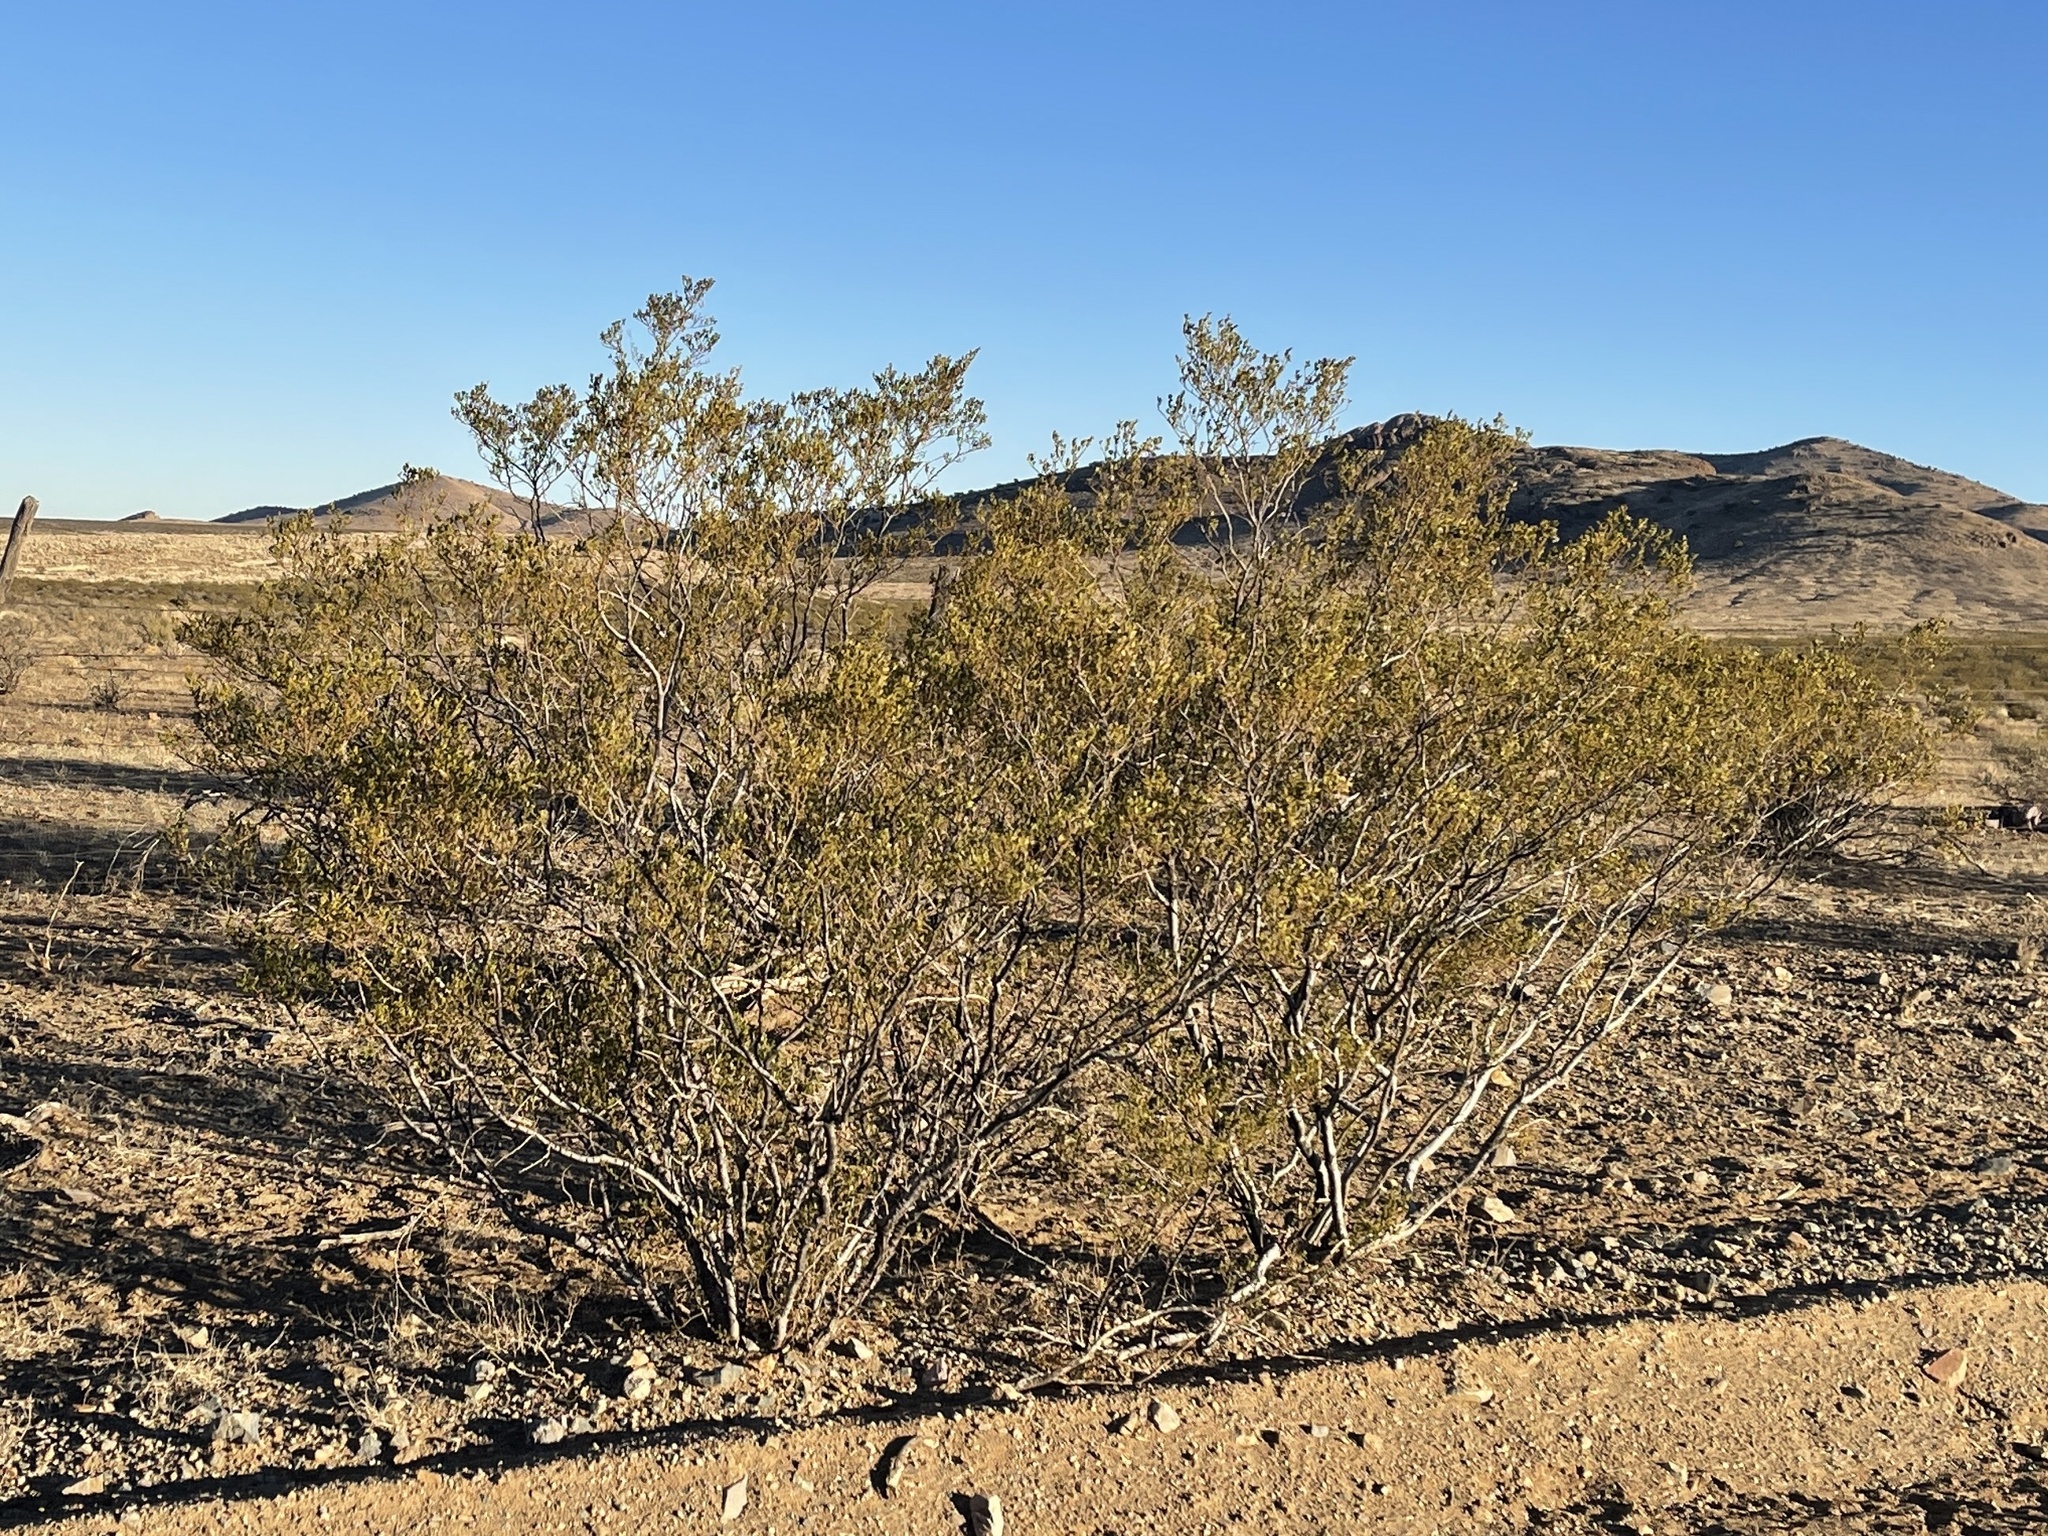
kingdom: Plantae
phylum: Tracheophyta
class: Magnoliopsida
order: Zygophyllales
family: Zygophyllaceae
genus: Larrea
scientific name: Larrea tridentata
